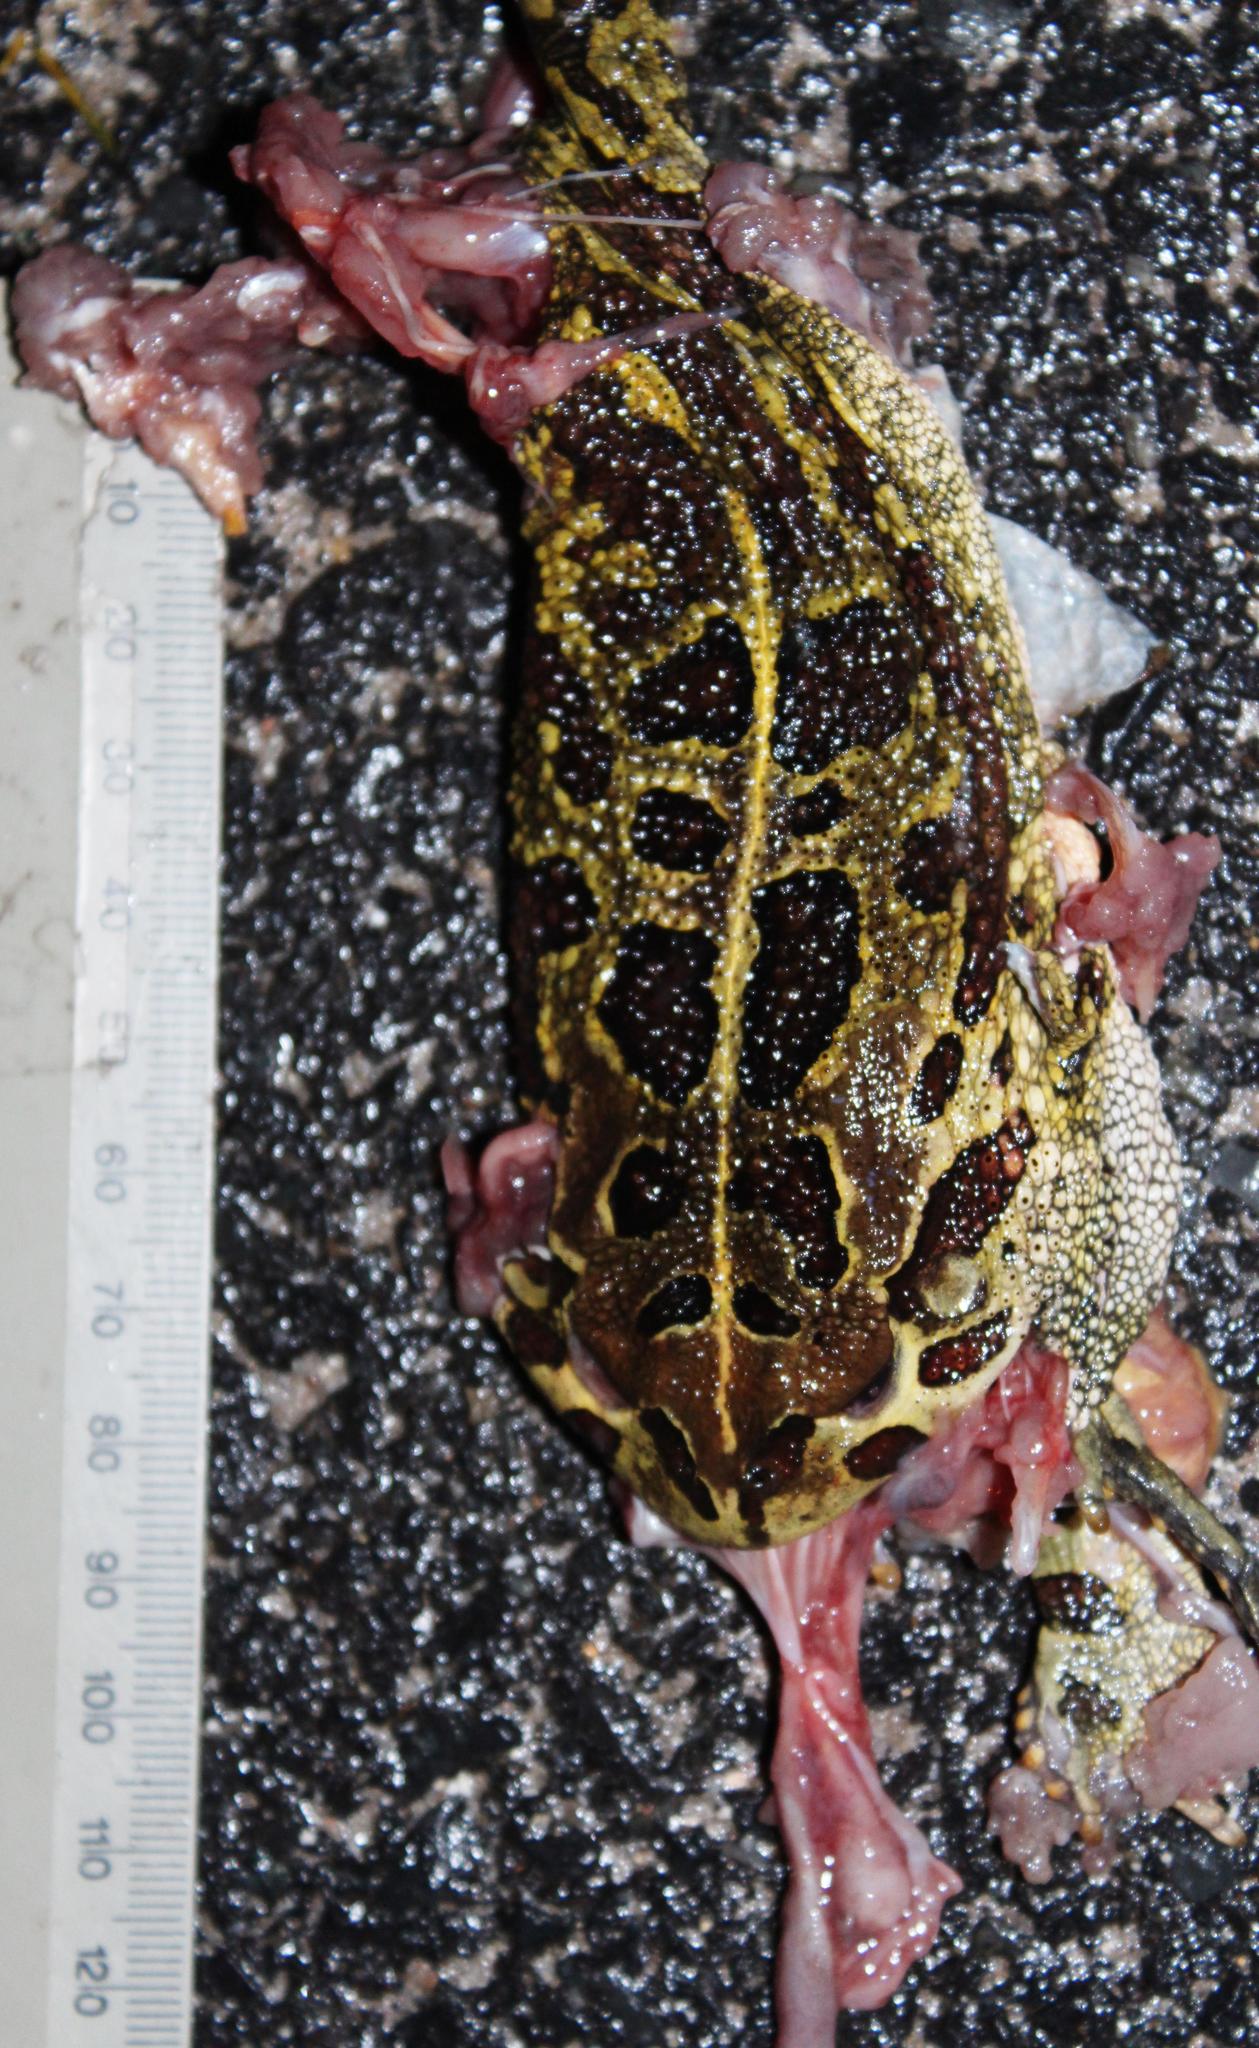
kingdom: Animalia
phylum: Chordata
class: Amphibia
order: Anura
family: Bufonidae
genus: Sclerophrys
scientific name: Sclerophrys pantherina
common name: Panther toad
